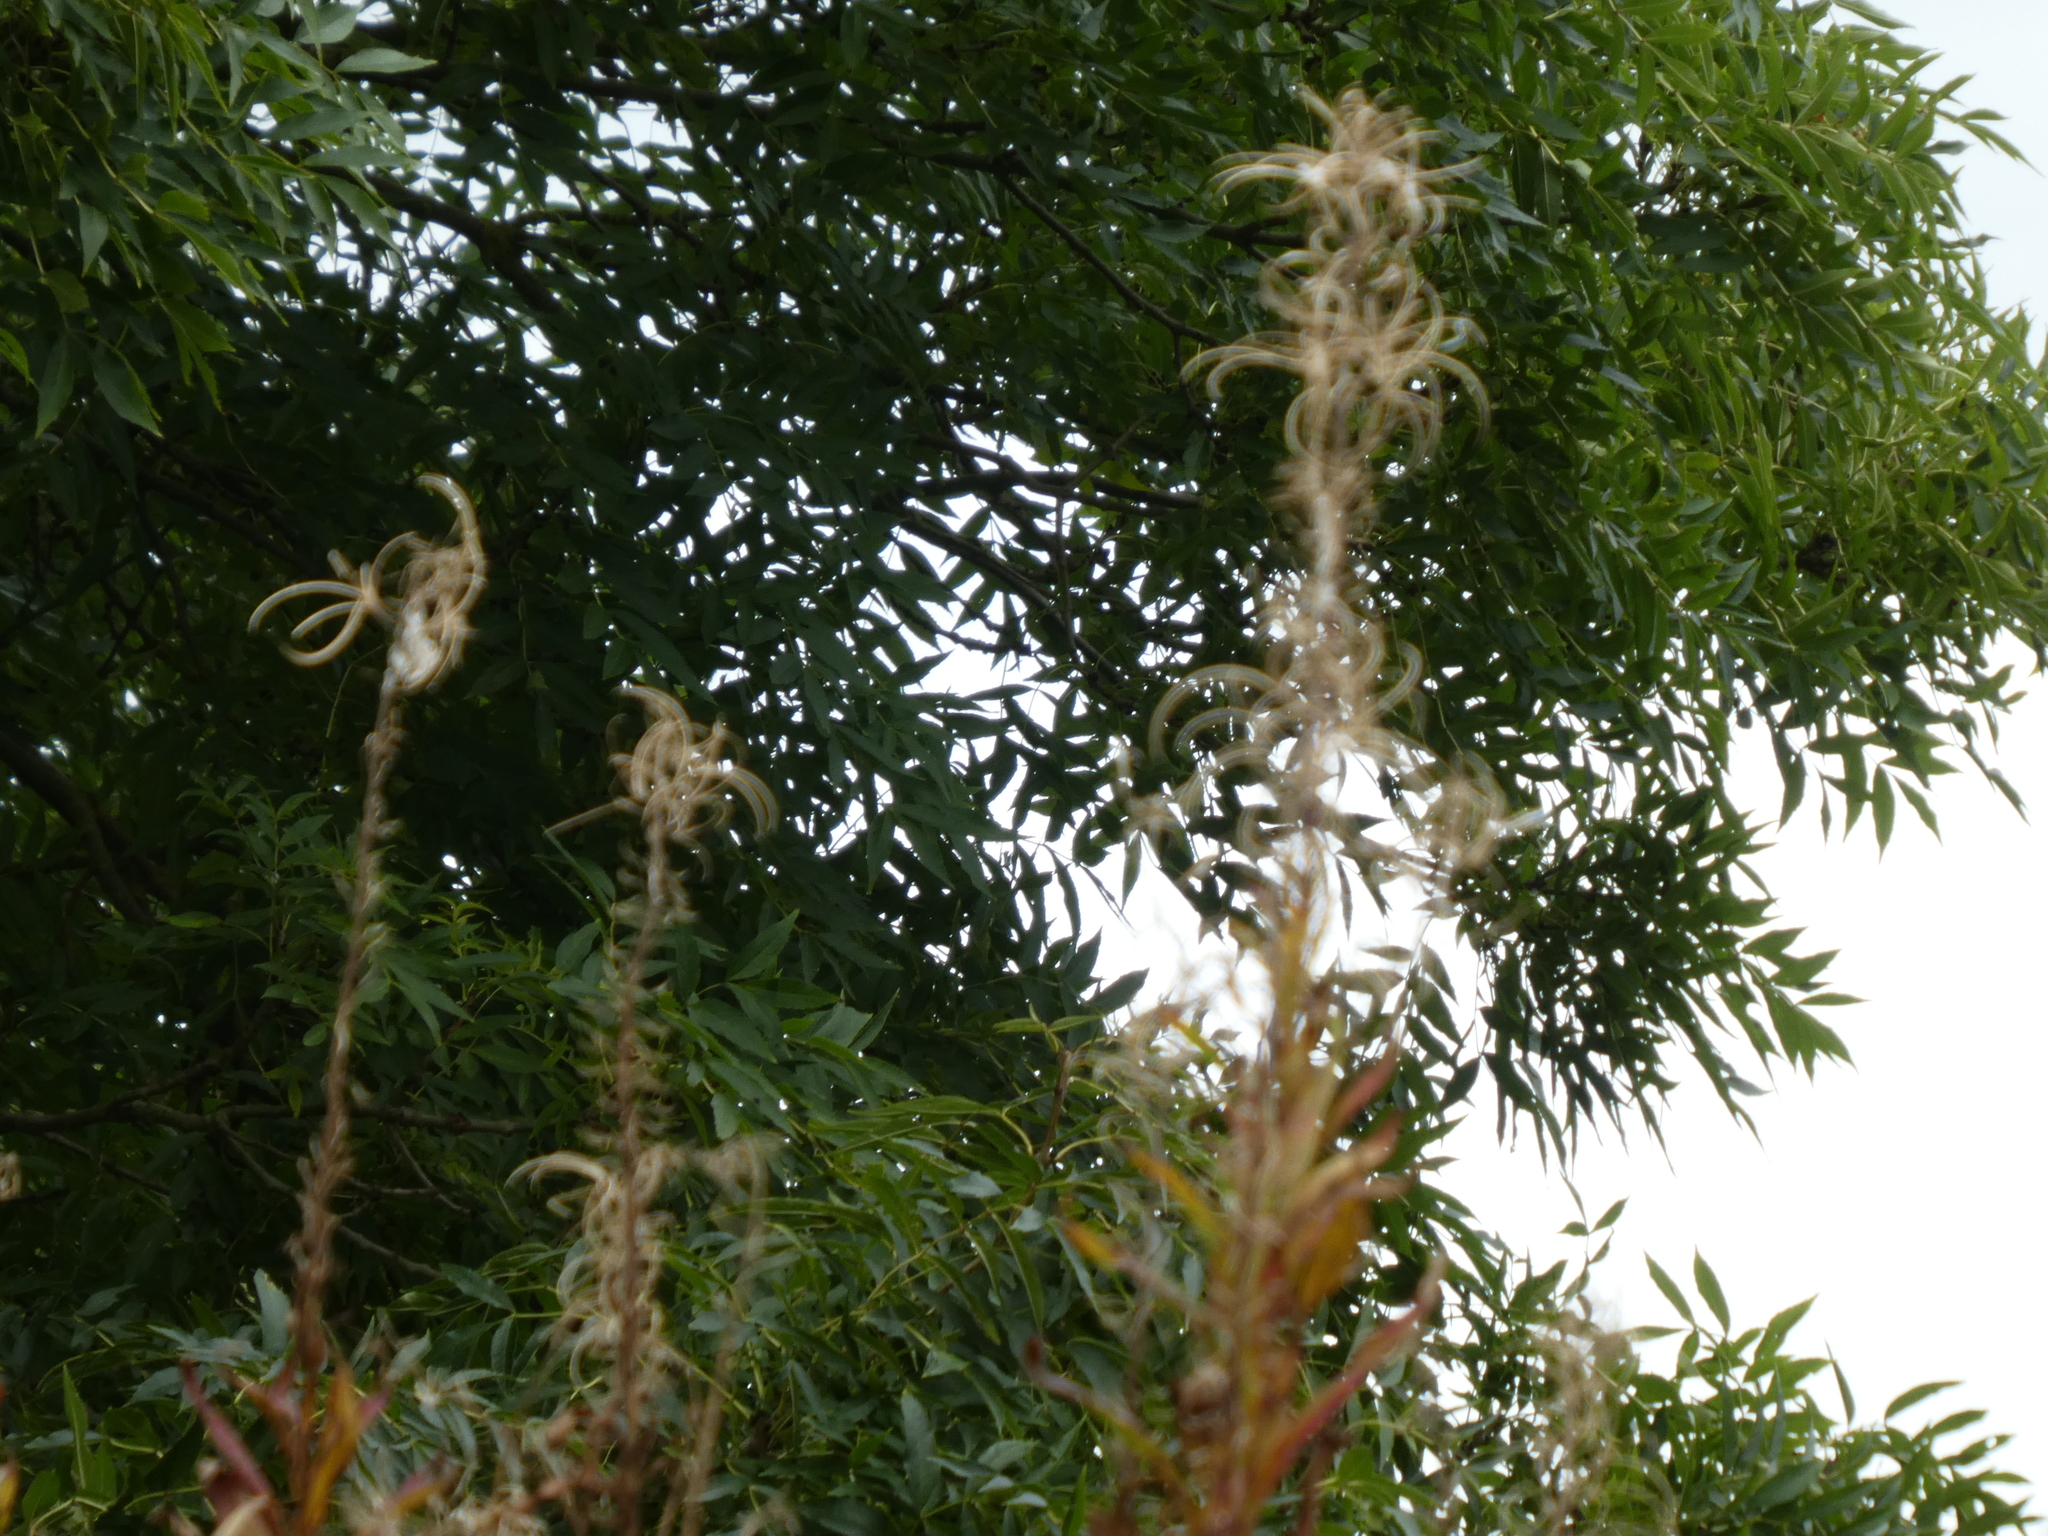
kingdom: Plantae
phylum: Tracheophyta
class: Magnoliopsida
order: Myrtales
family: Onagraceae
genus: Chamaenerion
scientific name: Chamaenerion angustifolium
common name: Fireweed
